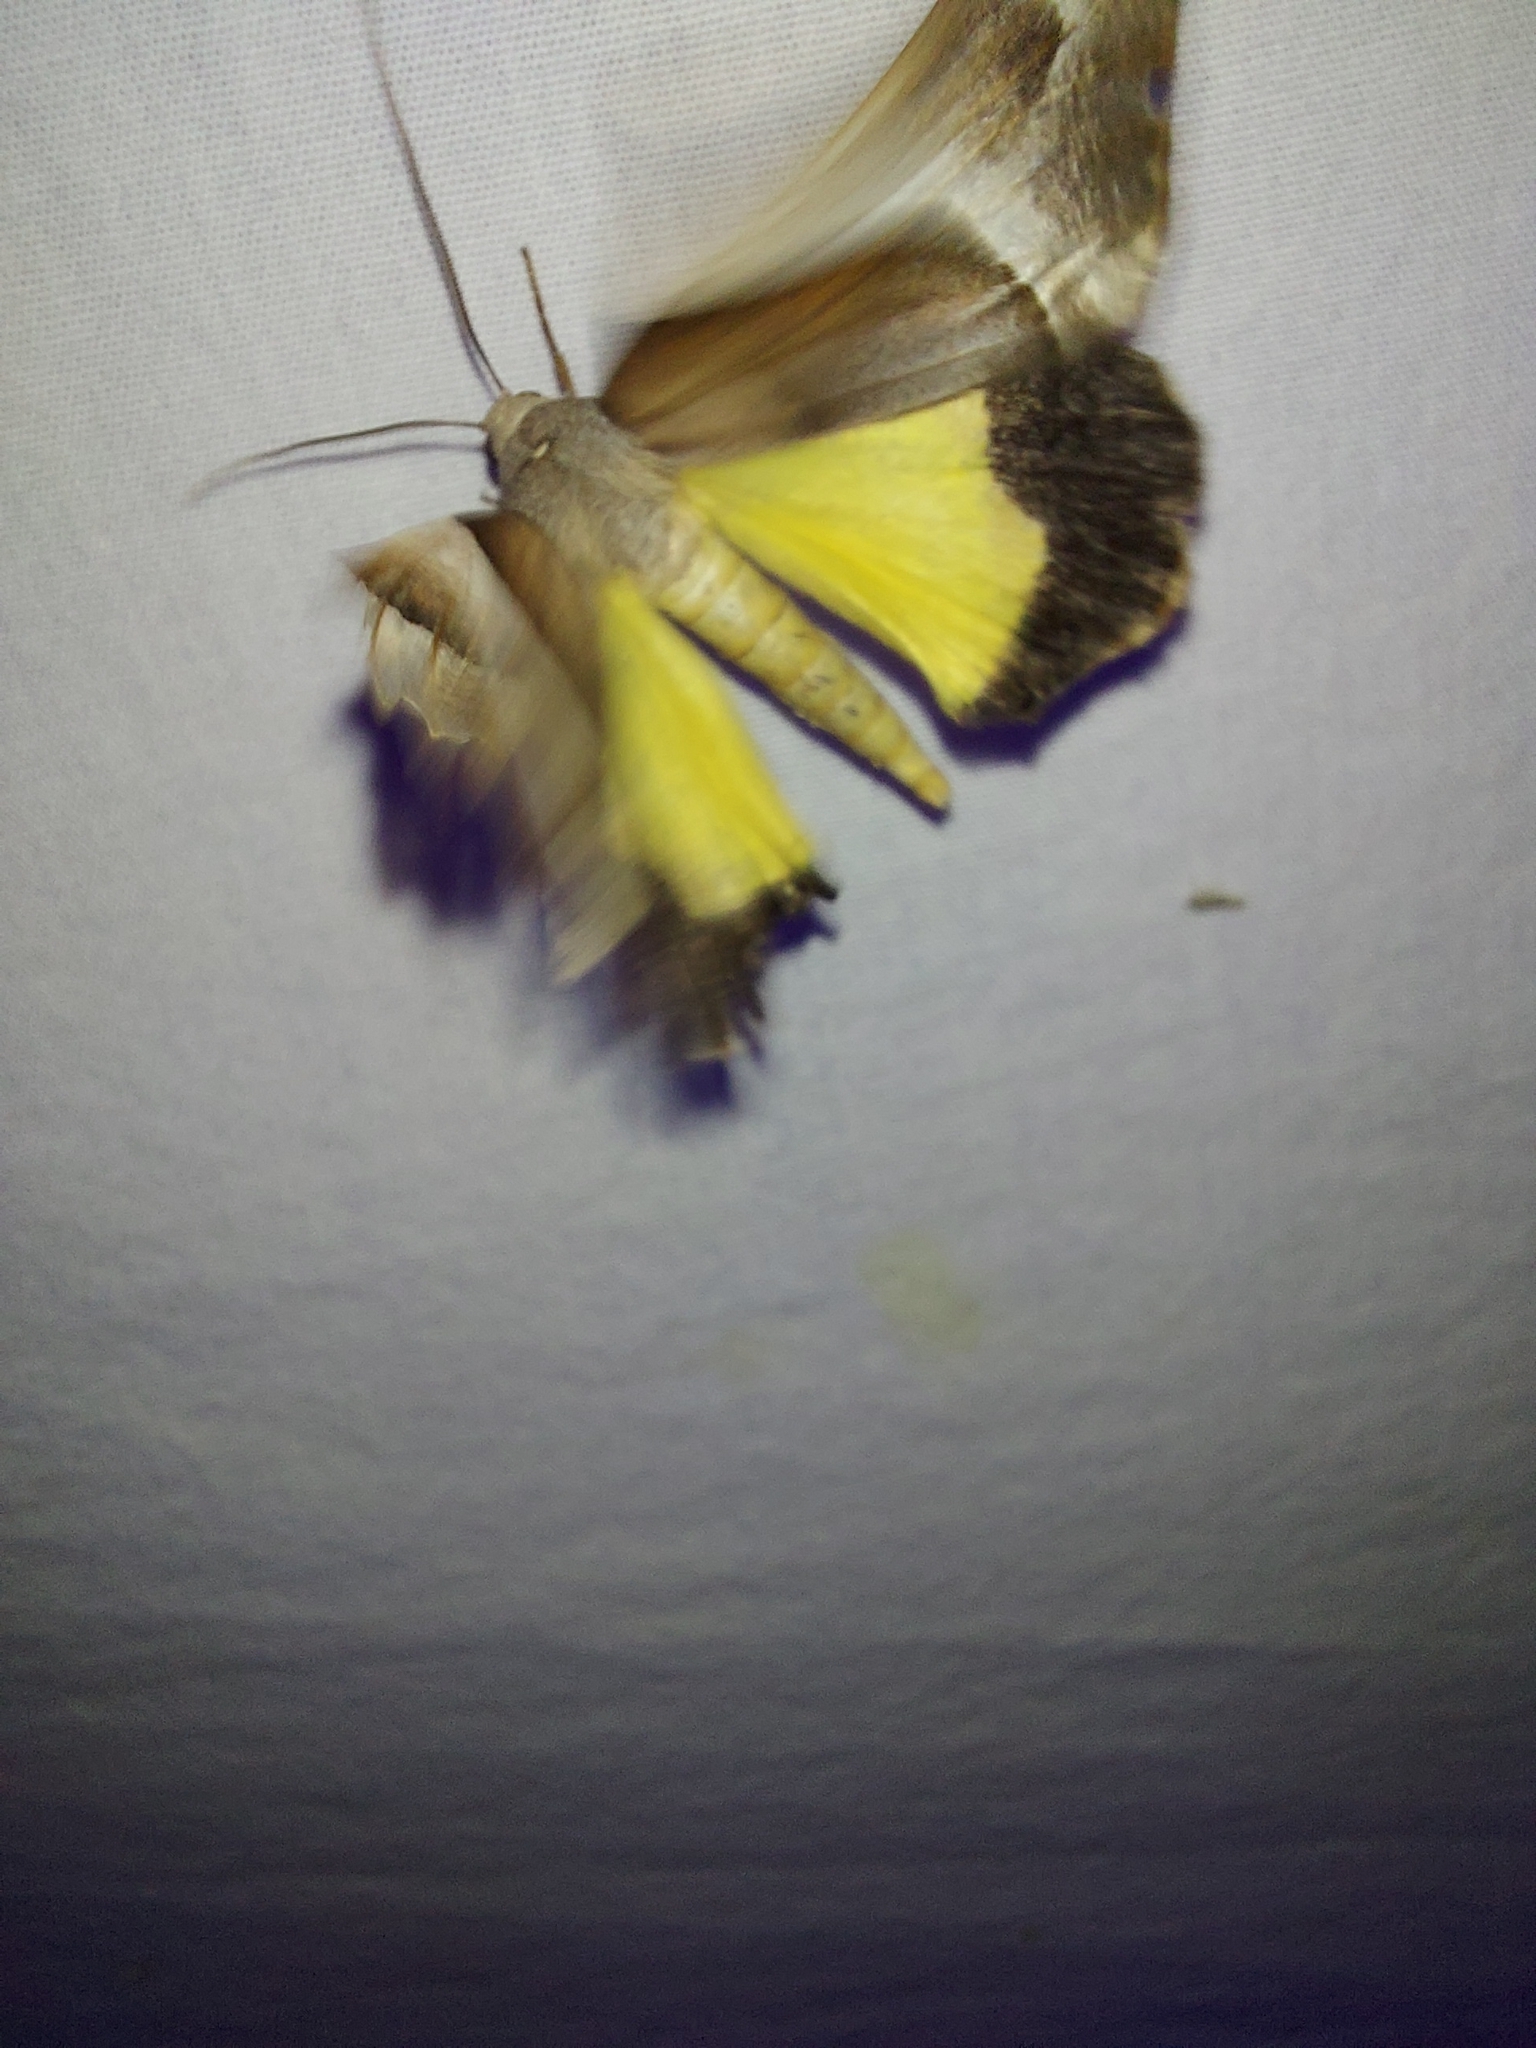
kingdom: Animalia
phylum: Arthropoda
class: Insecta
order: Lepidoptera
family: Geometridae
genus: Niceteria
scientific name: Niceteria macrocosma
